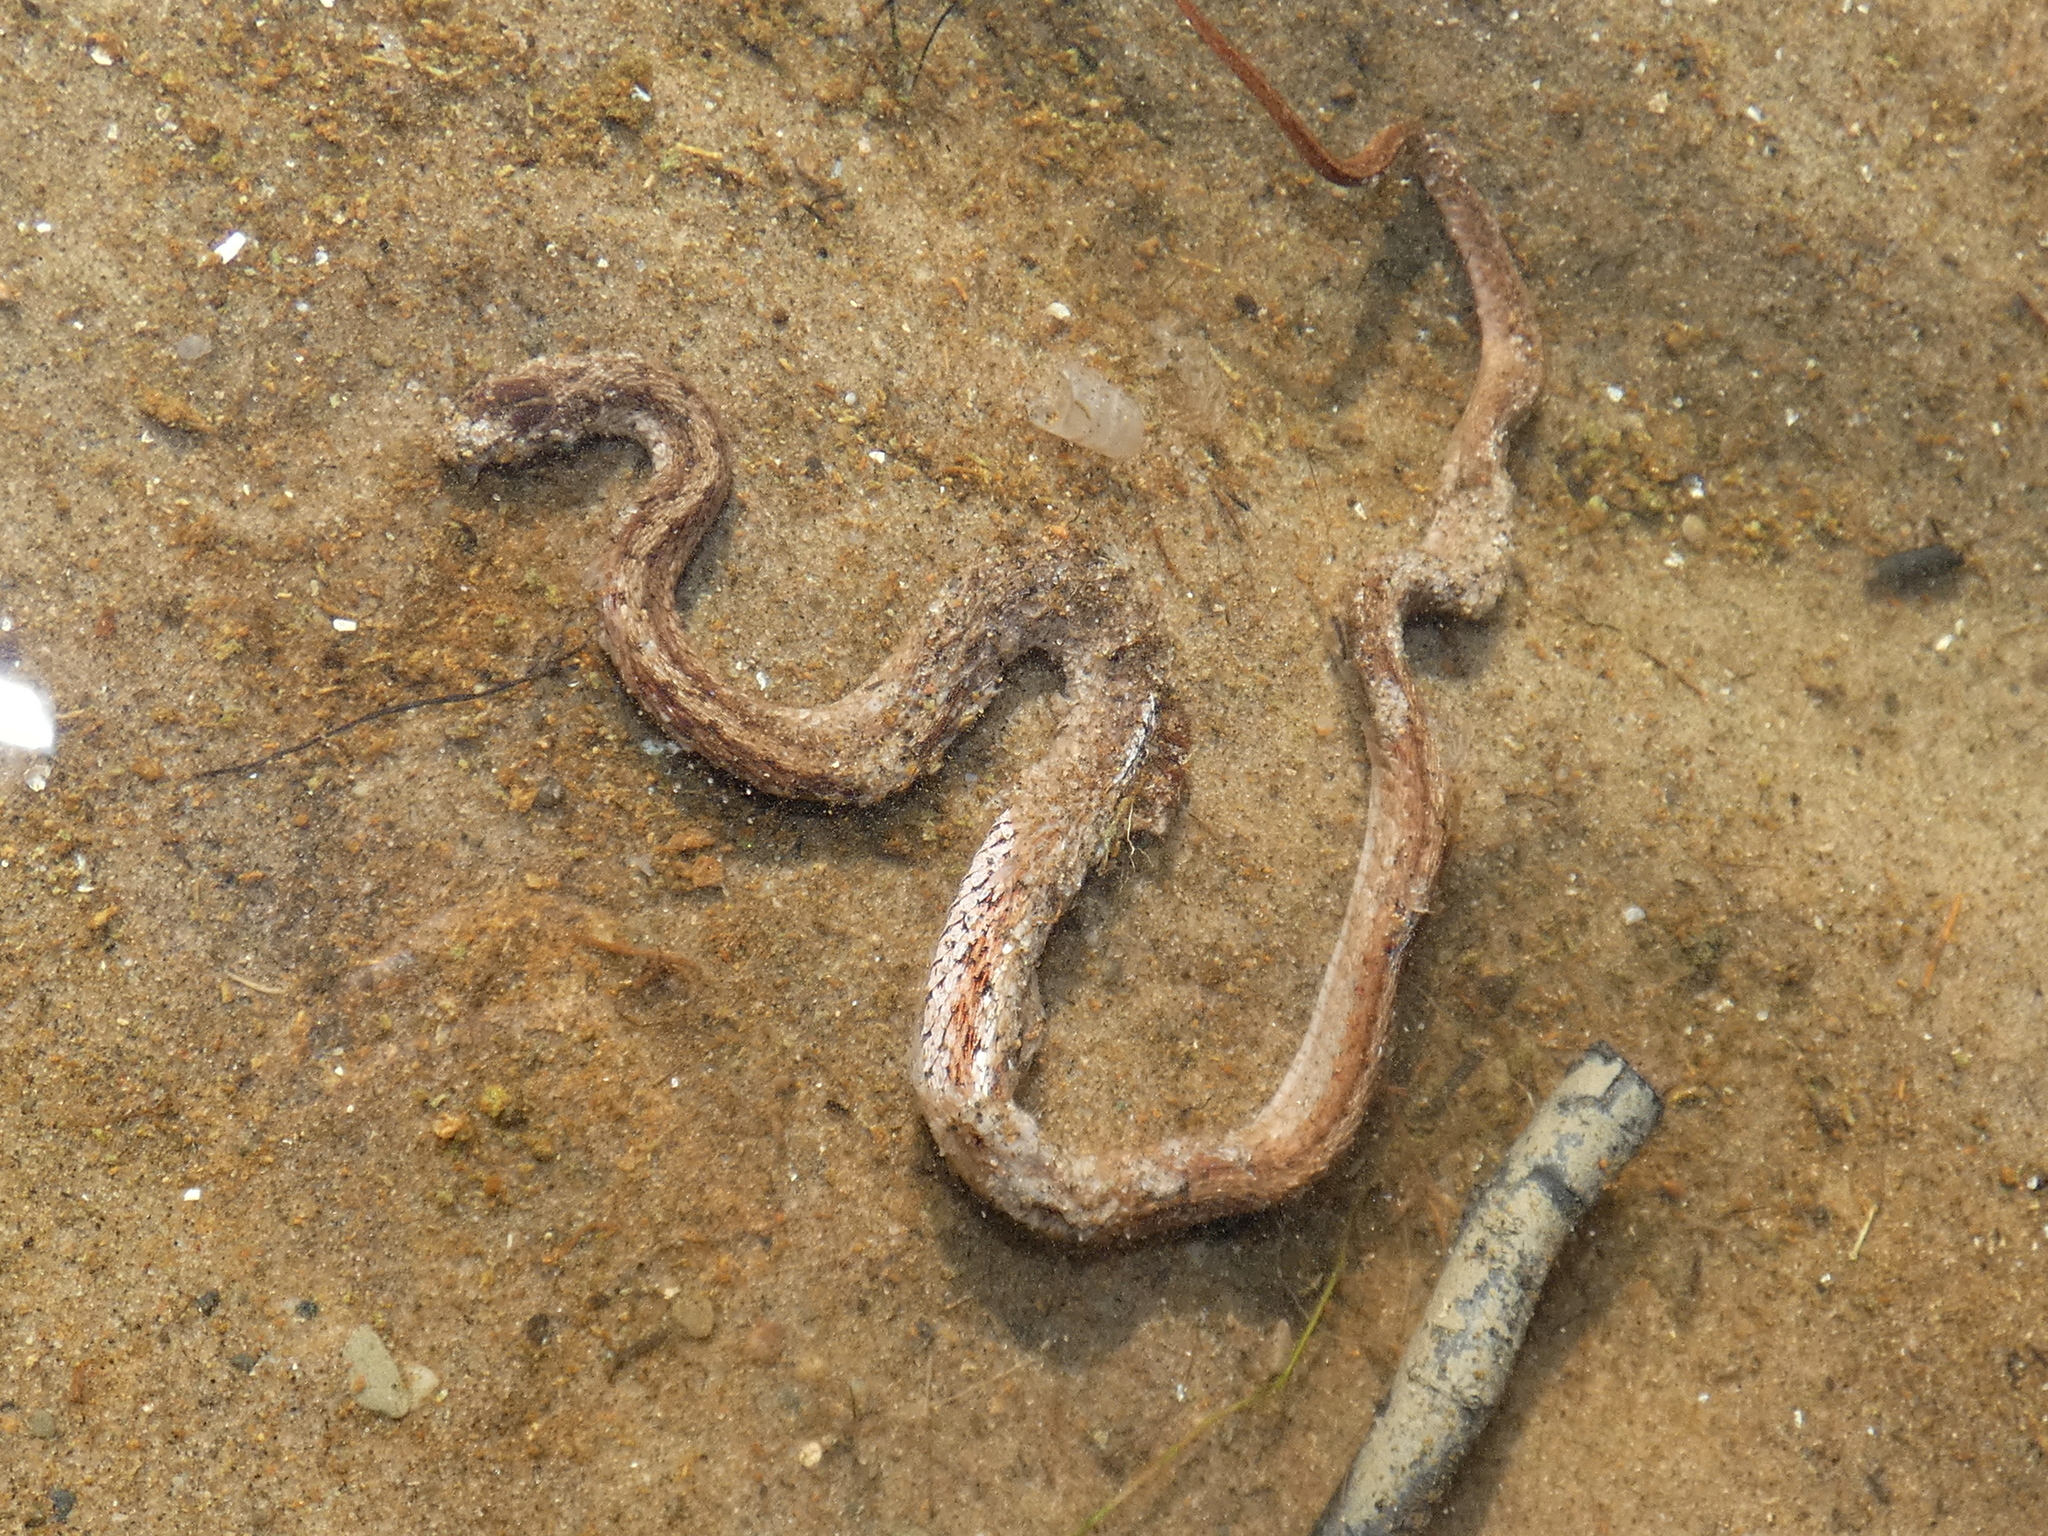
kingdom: Animalia
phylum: Chordata
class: Squamata
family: Colubridae
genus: Storeria
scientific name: Storeria dekayi
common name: (dekay’s) brown snake
